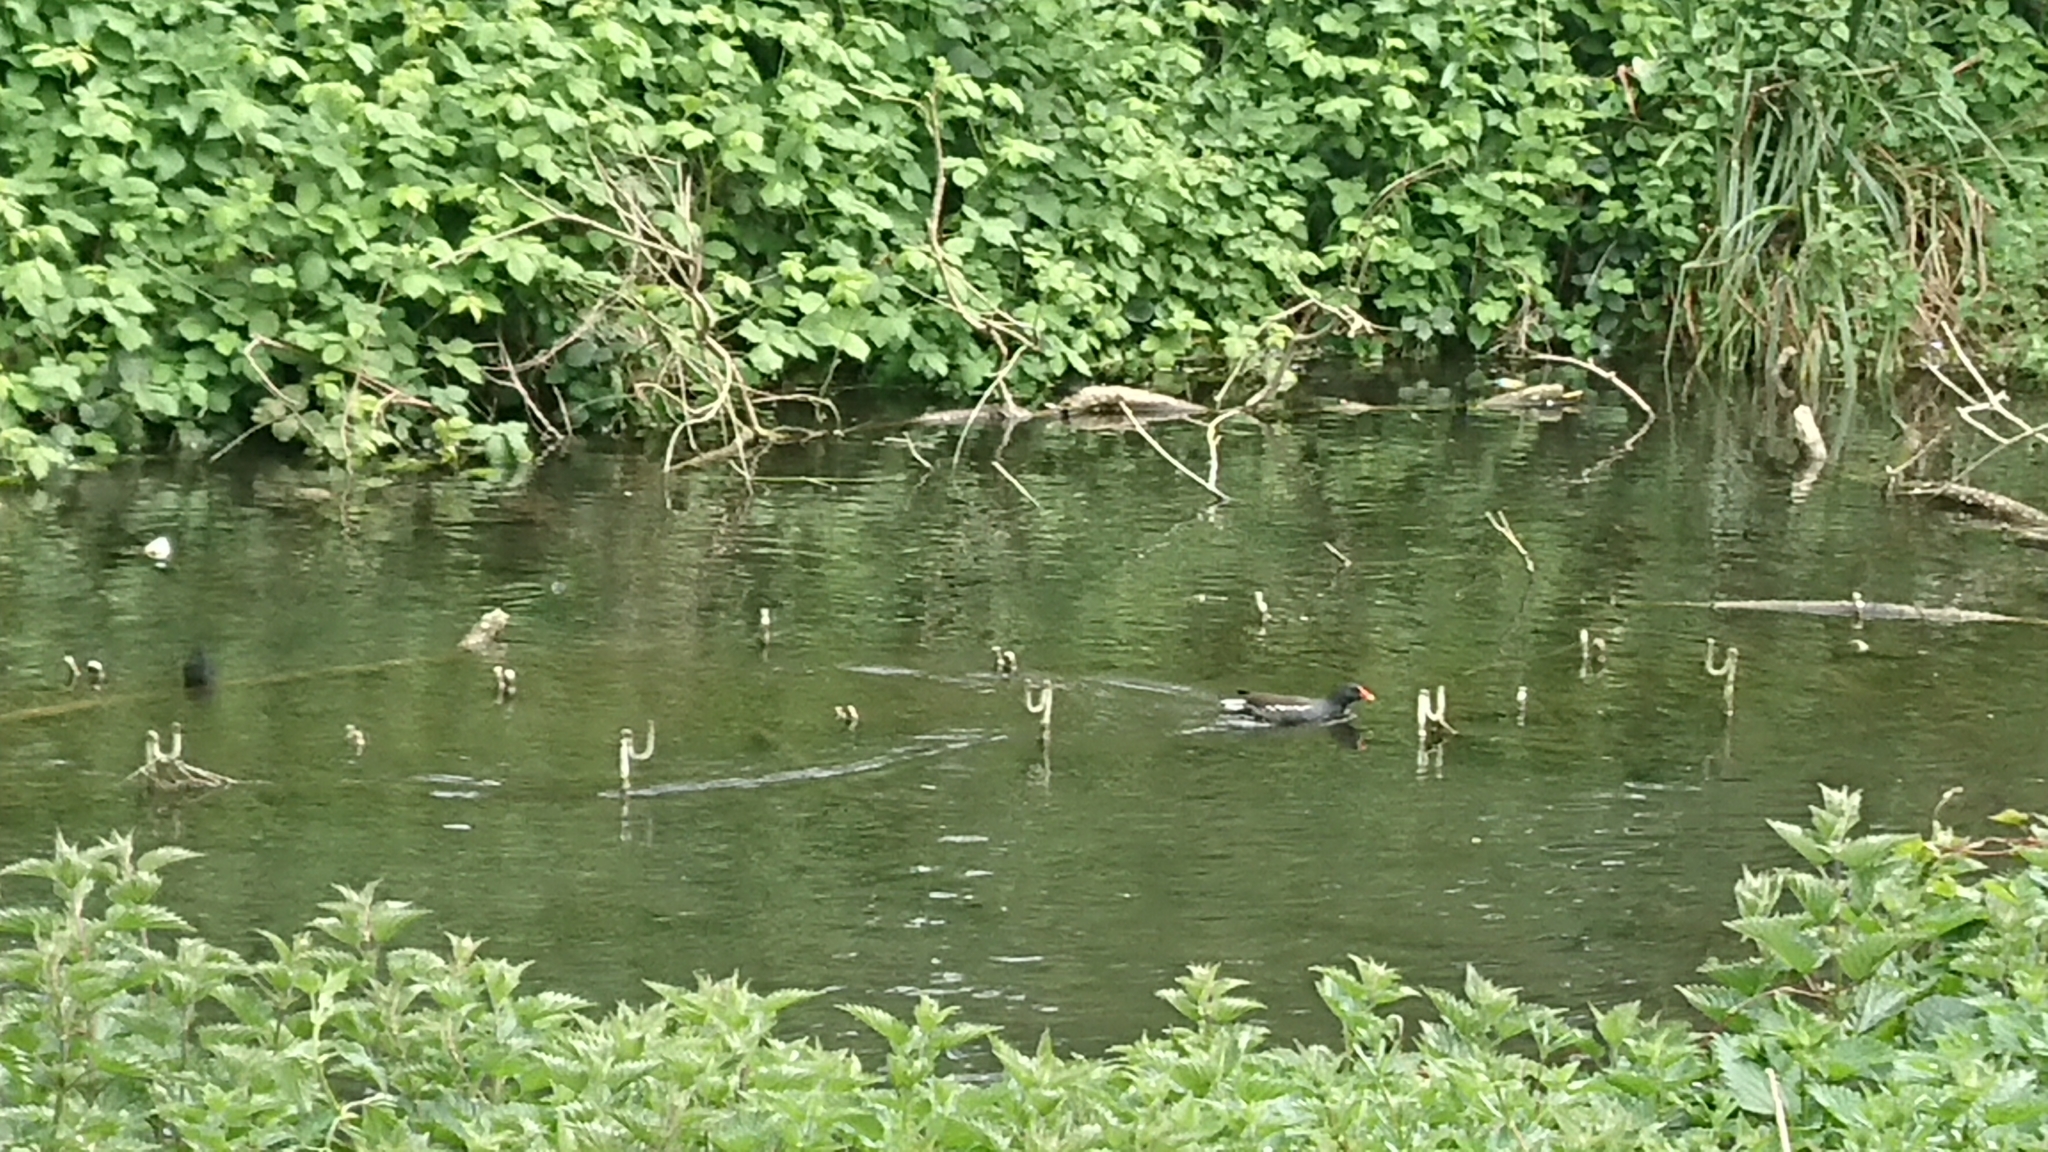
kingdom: Animalia
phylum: Chordata
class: Aves
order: Gruiformes
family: Rallidae
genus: Gallinula
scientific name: Gallinula chloropus
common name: Common moorhen
